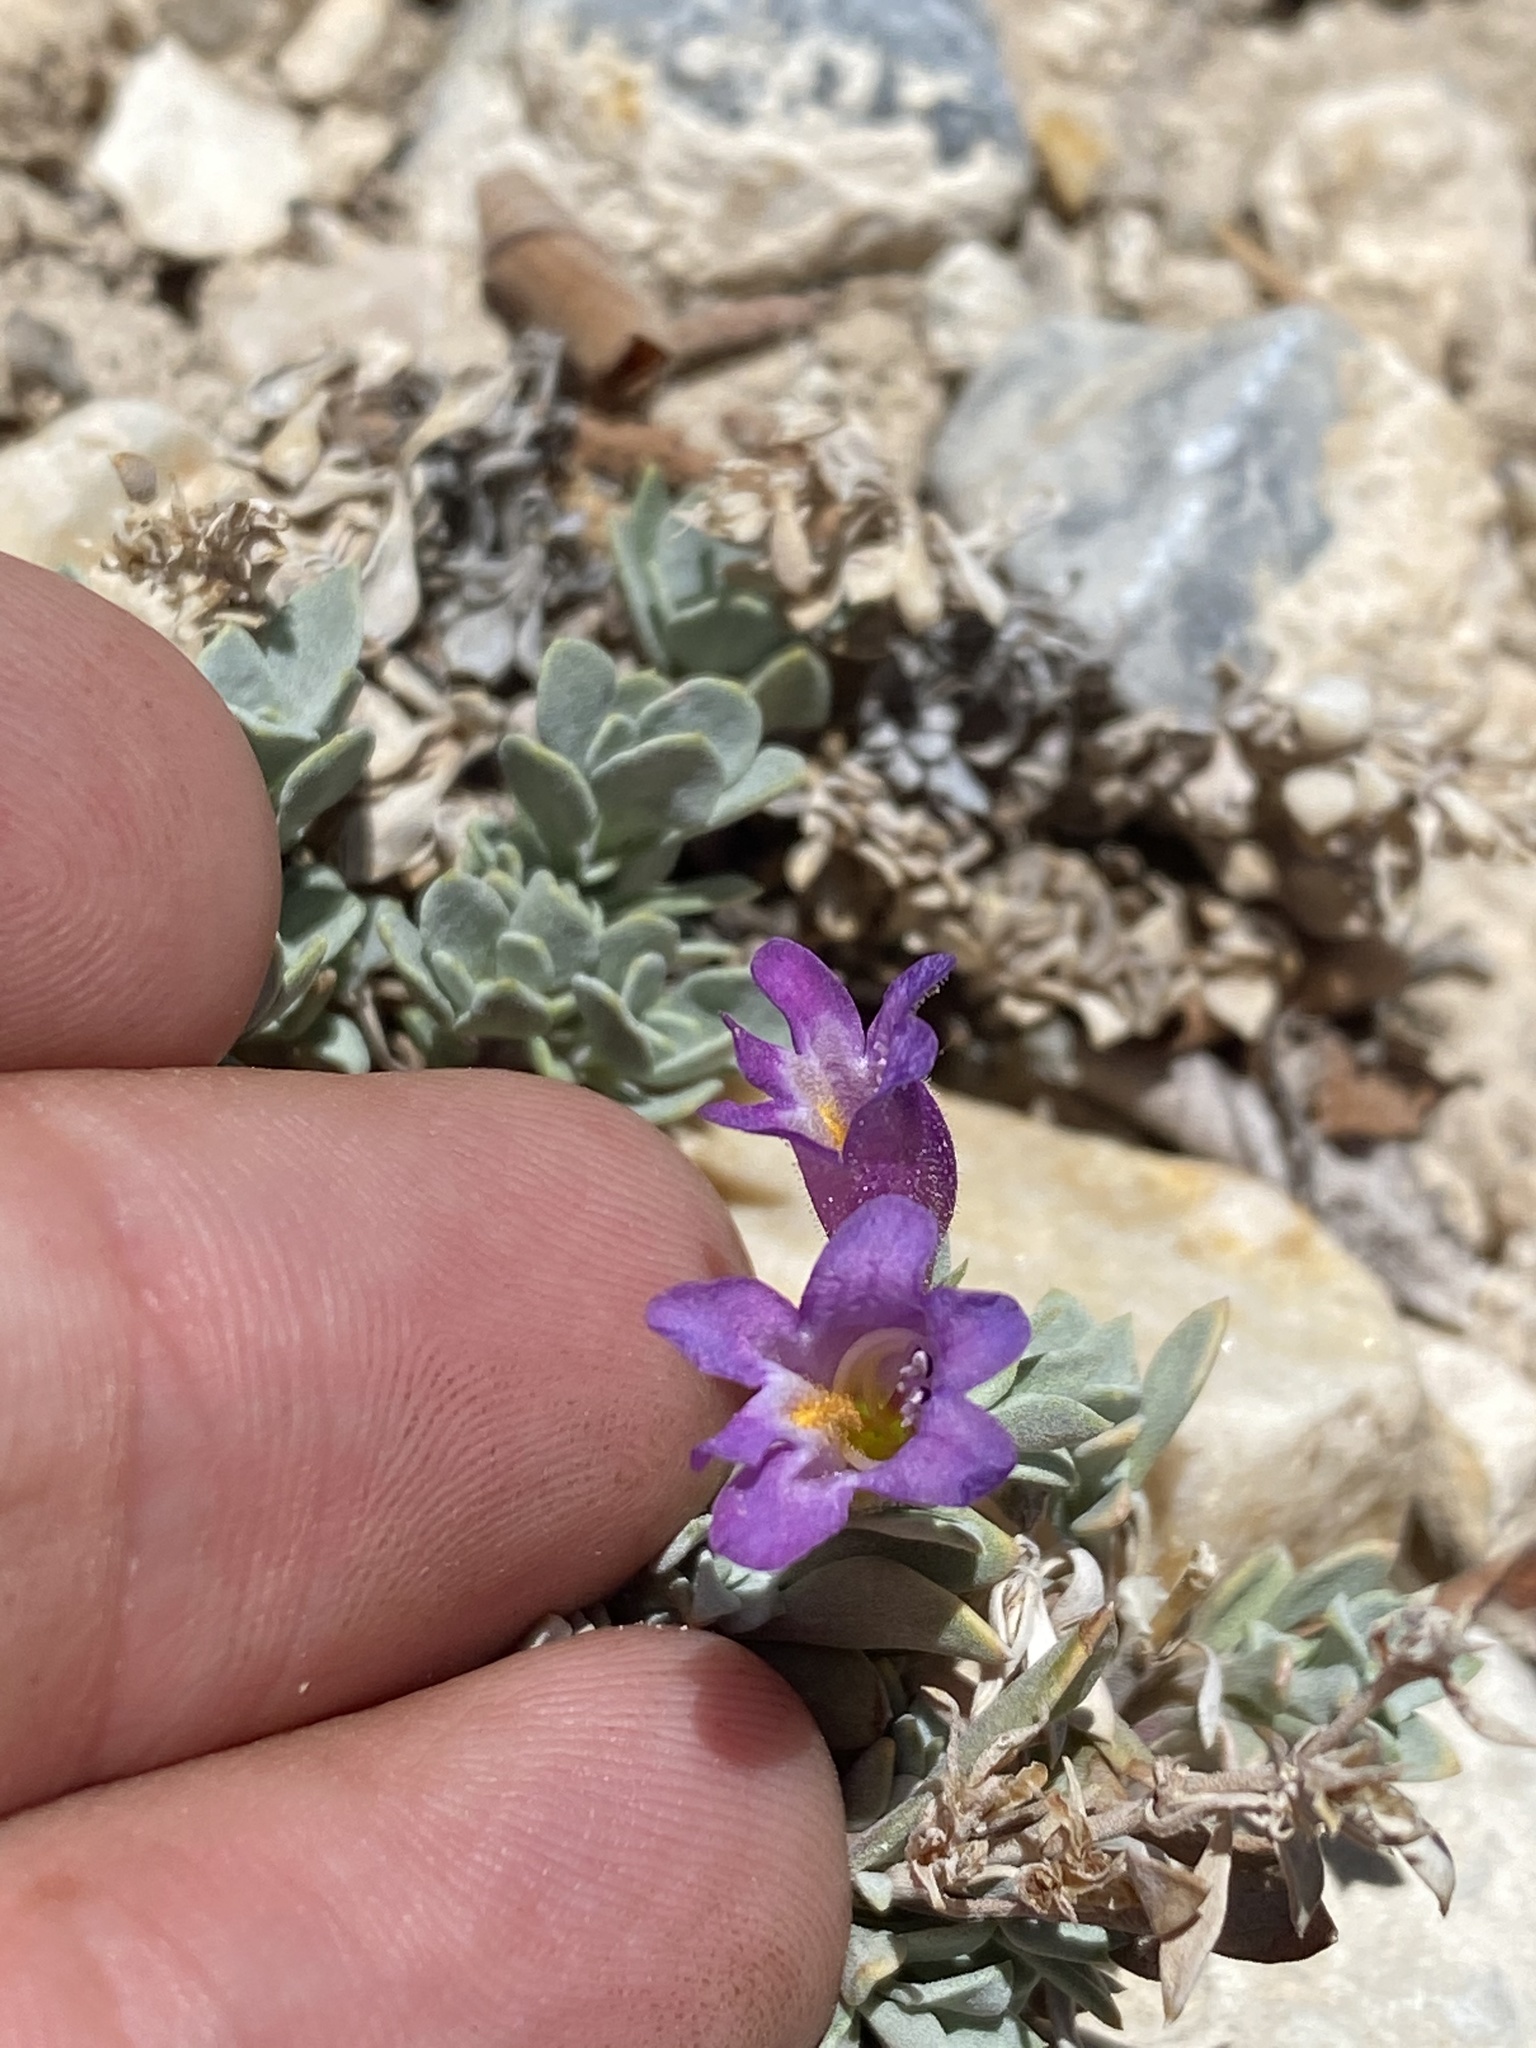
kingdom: Plantae
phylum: Tracheophyta
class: Magnoliopsida
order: Lamiales
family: Plantaginaceae
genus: Penstemon
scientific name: Penstemon thompsoniae
